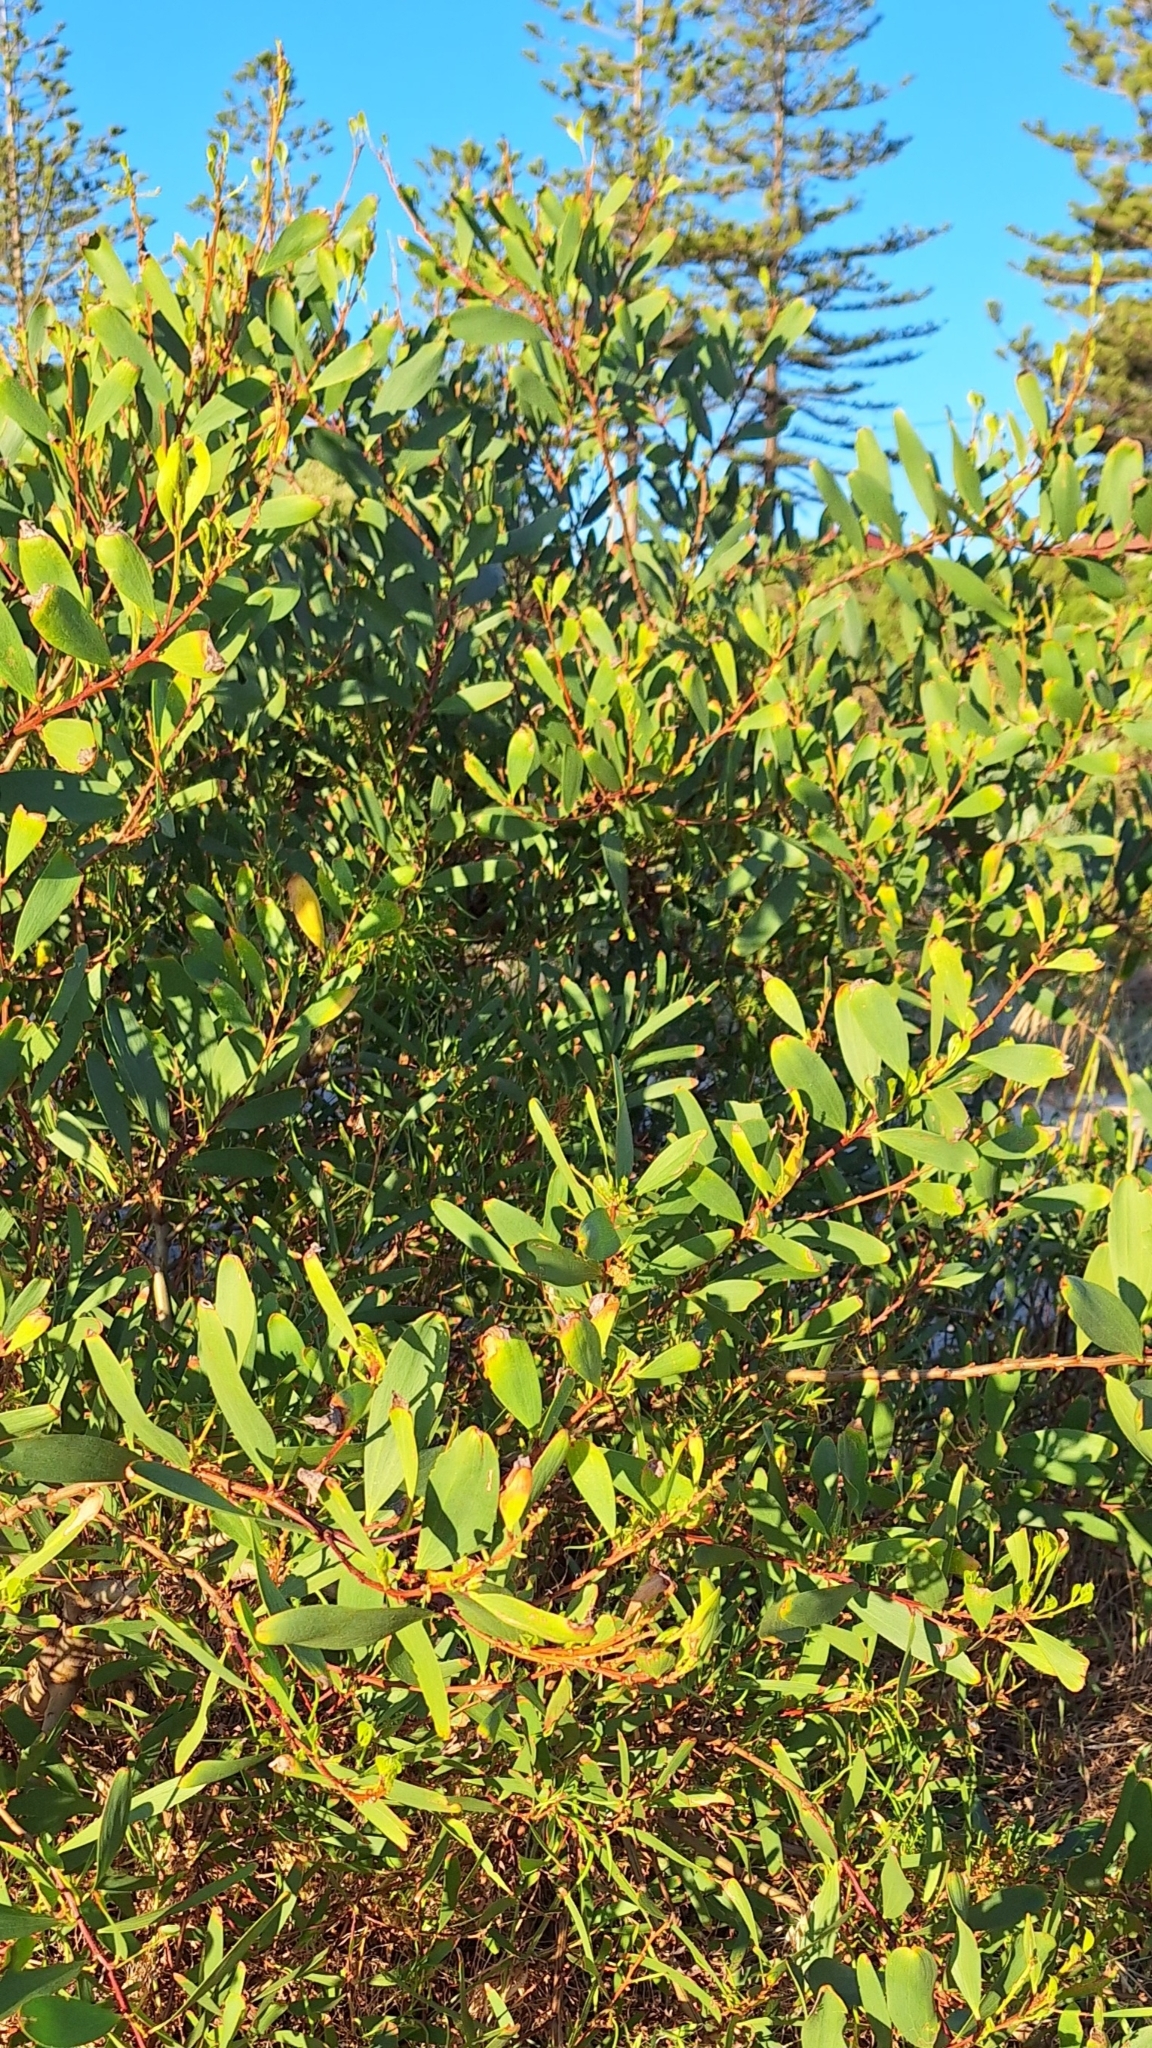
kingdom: Plantae
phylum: Tracheophyta
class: Magnoliopsida
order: Fabales
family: Fabaceae
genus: Acacia
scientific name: Acacia longifolia
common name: Sydney golden wattle
